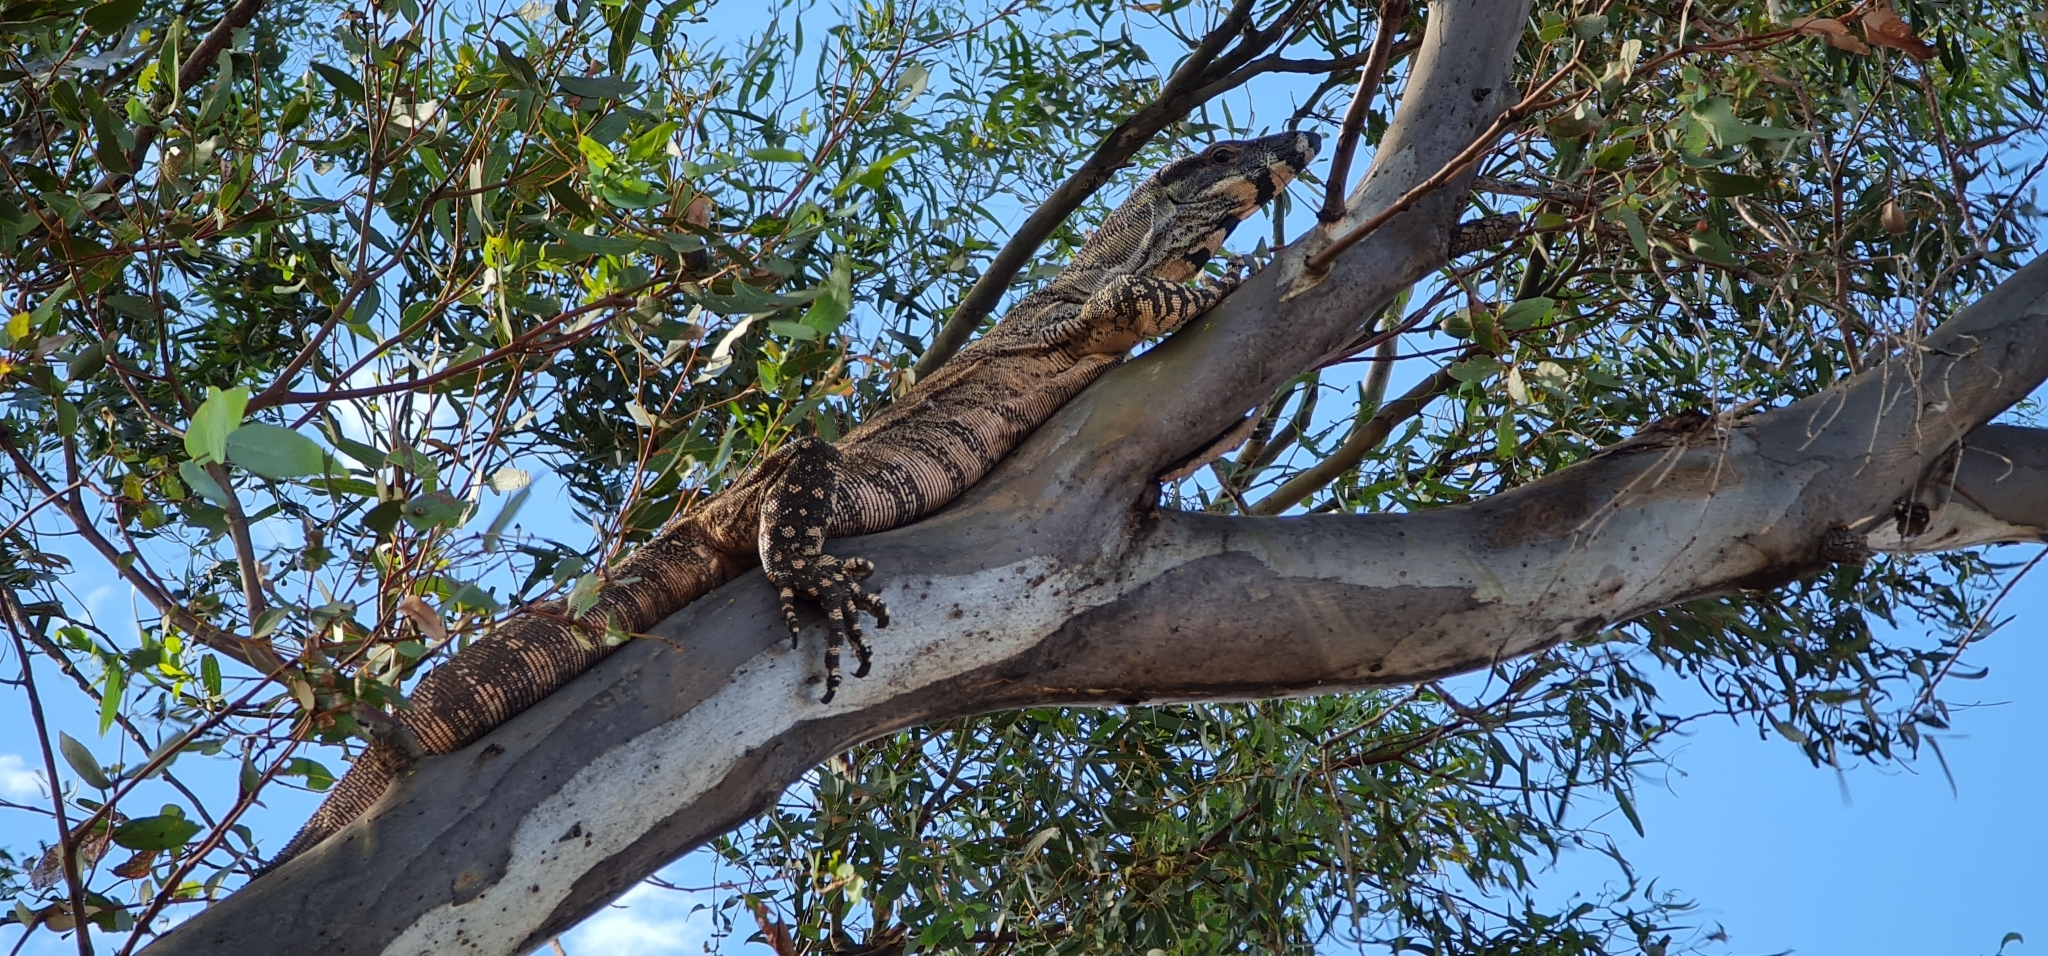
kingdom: Animalia
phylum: Chordata
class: Squamata
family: Varanidae
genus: Varanus
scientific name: Varanus varius
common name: Lace monitor
